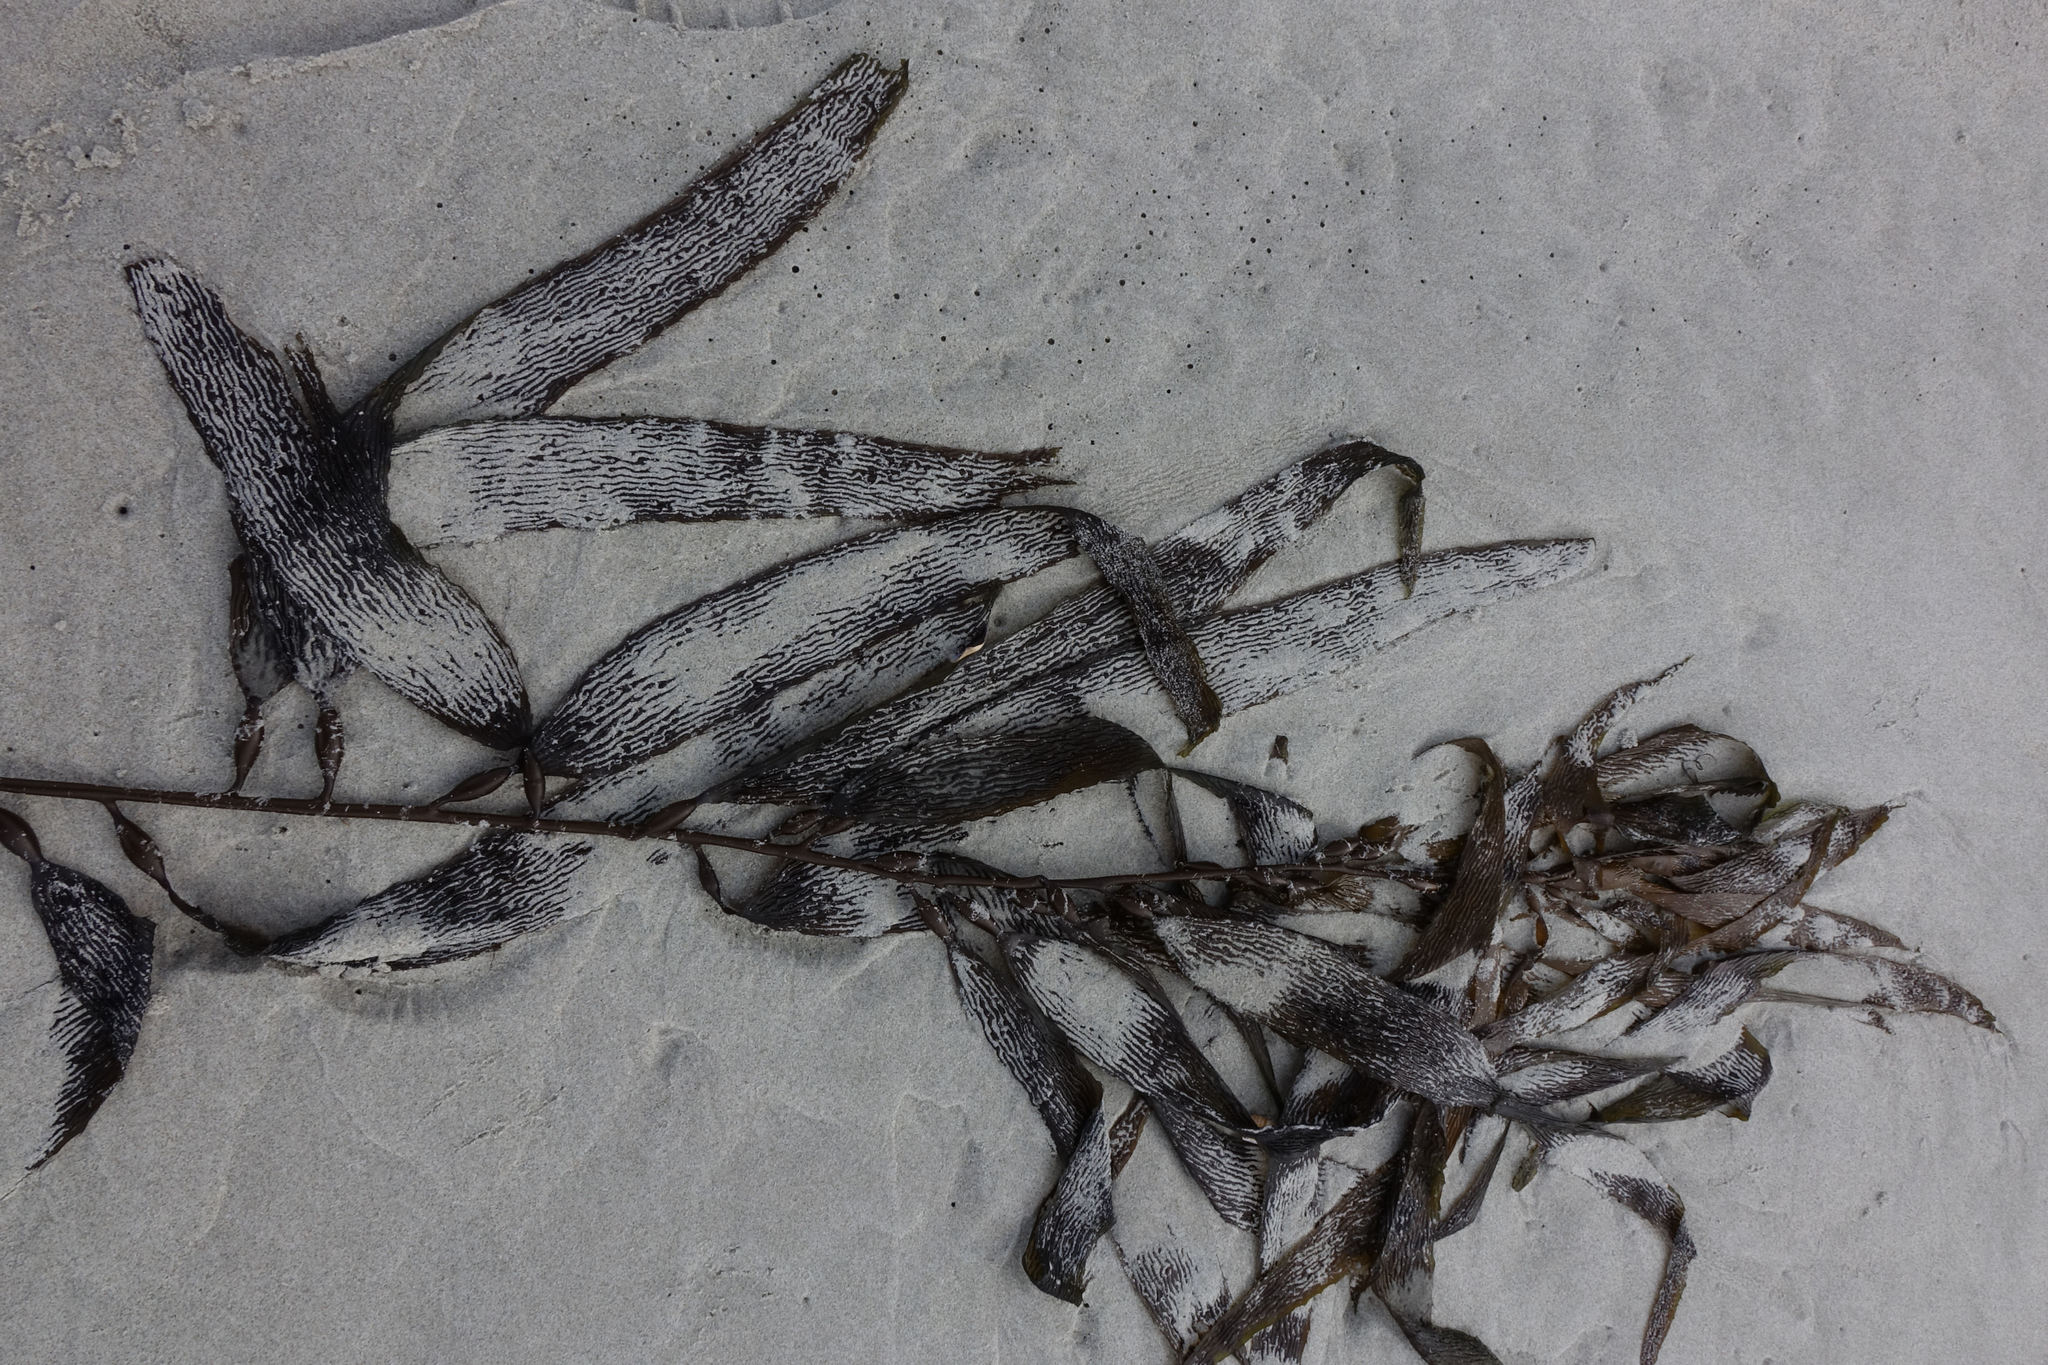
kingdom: Chromista
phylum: Ochrophyta
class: Phaeophyceae
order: Laminariales
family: Laminariaceae
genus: Macrocystis
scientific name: Macrocystis pyrifera
